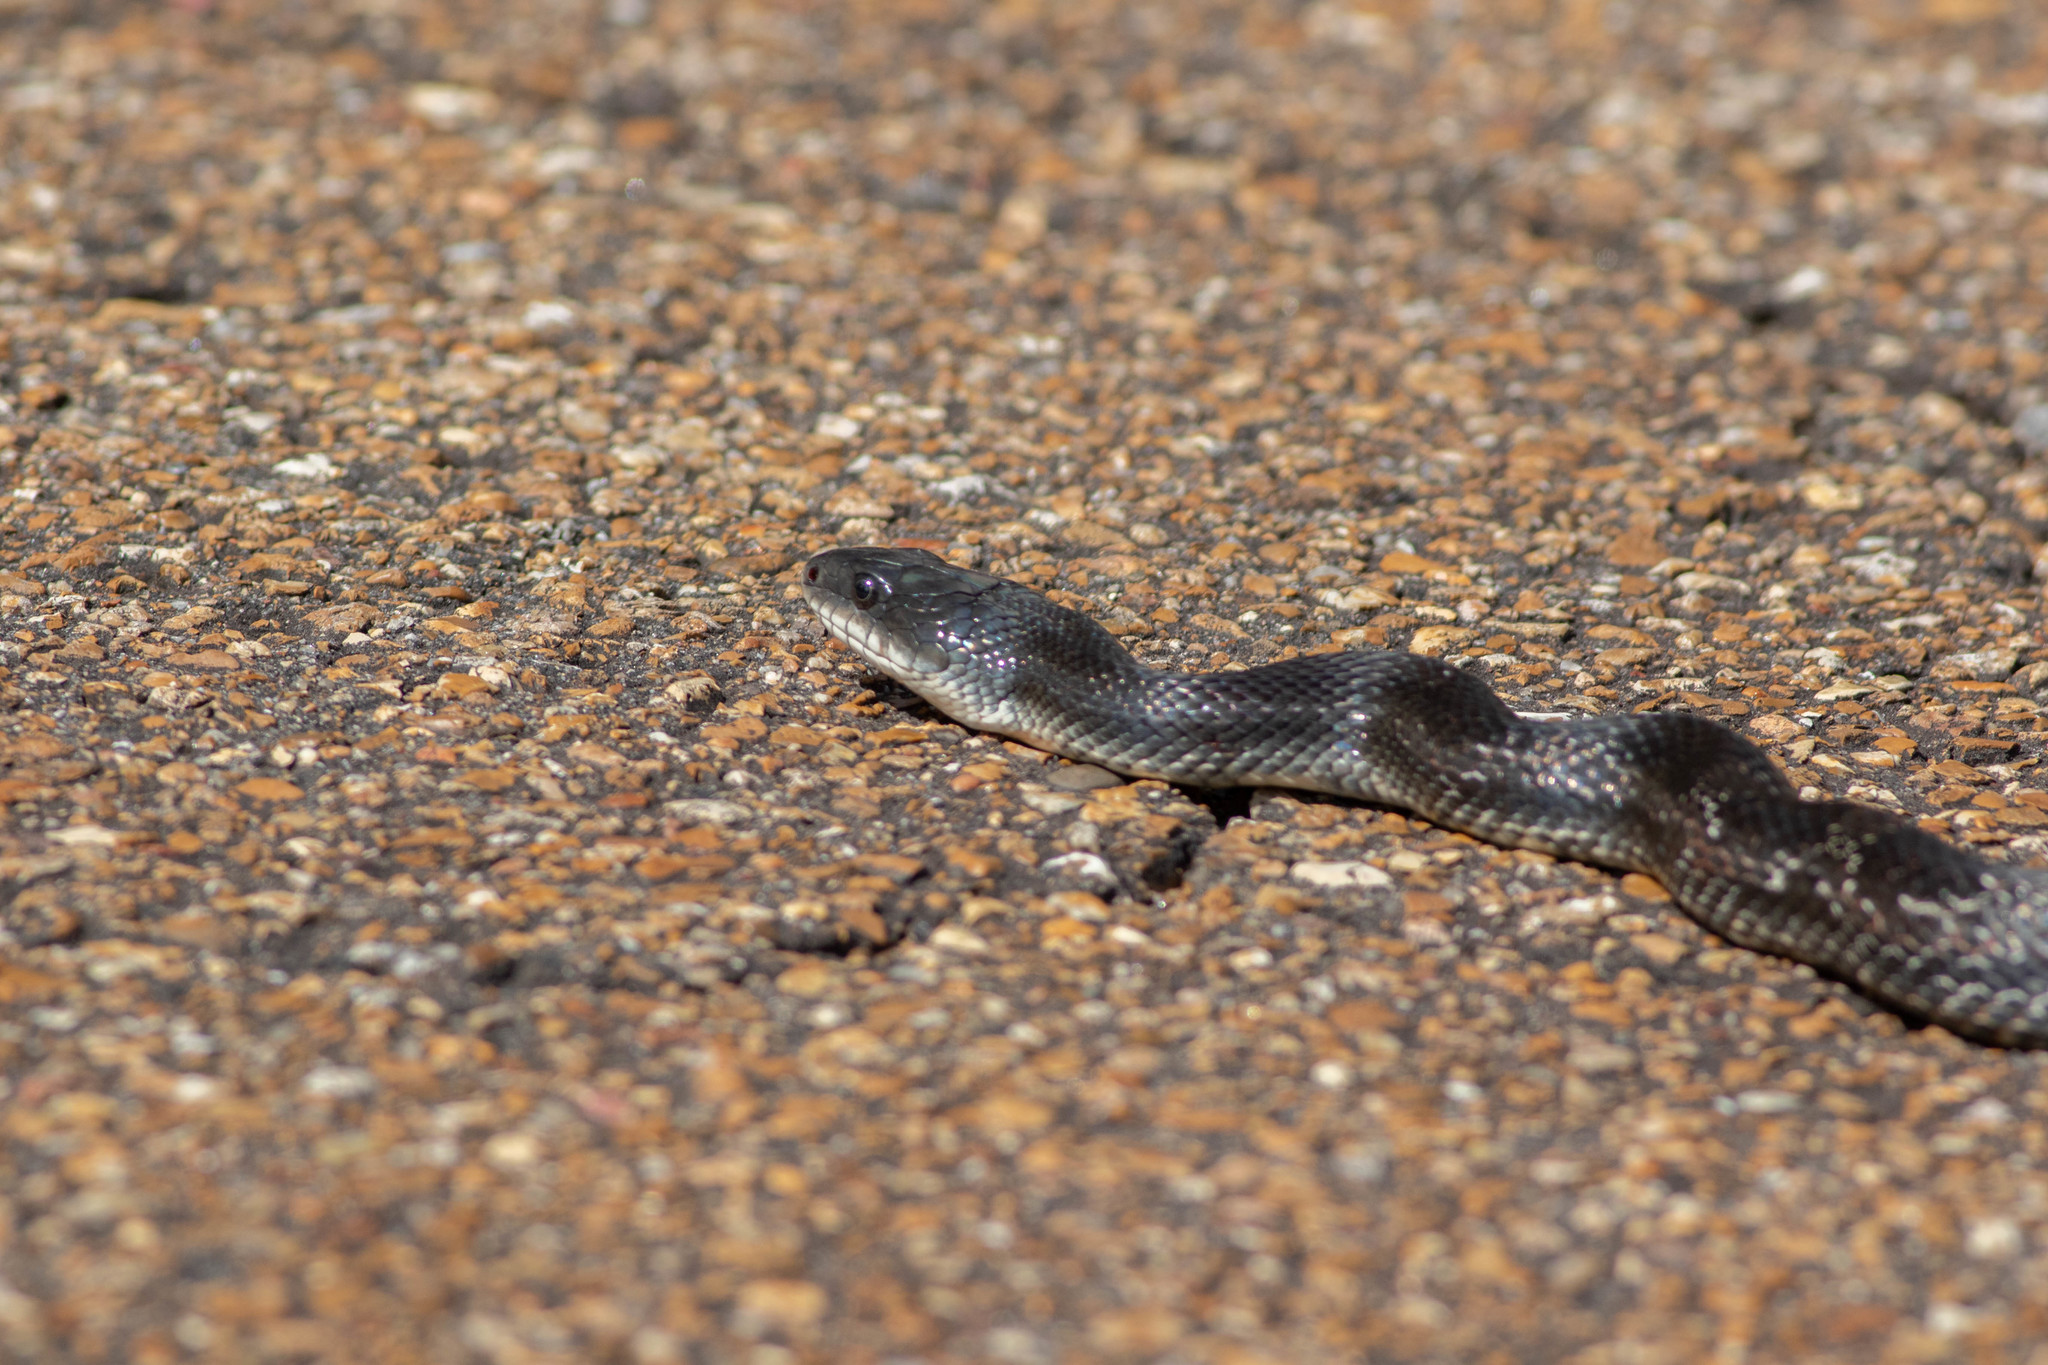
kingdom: Animalia
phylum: Chordata
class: Squamata
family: Colubridae
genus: Pantherophis
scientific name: Pantherophis obsoletus
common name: Black rat snake
